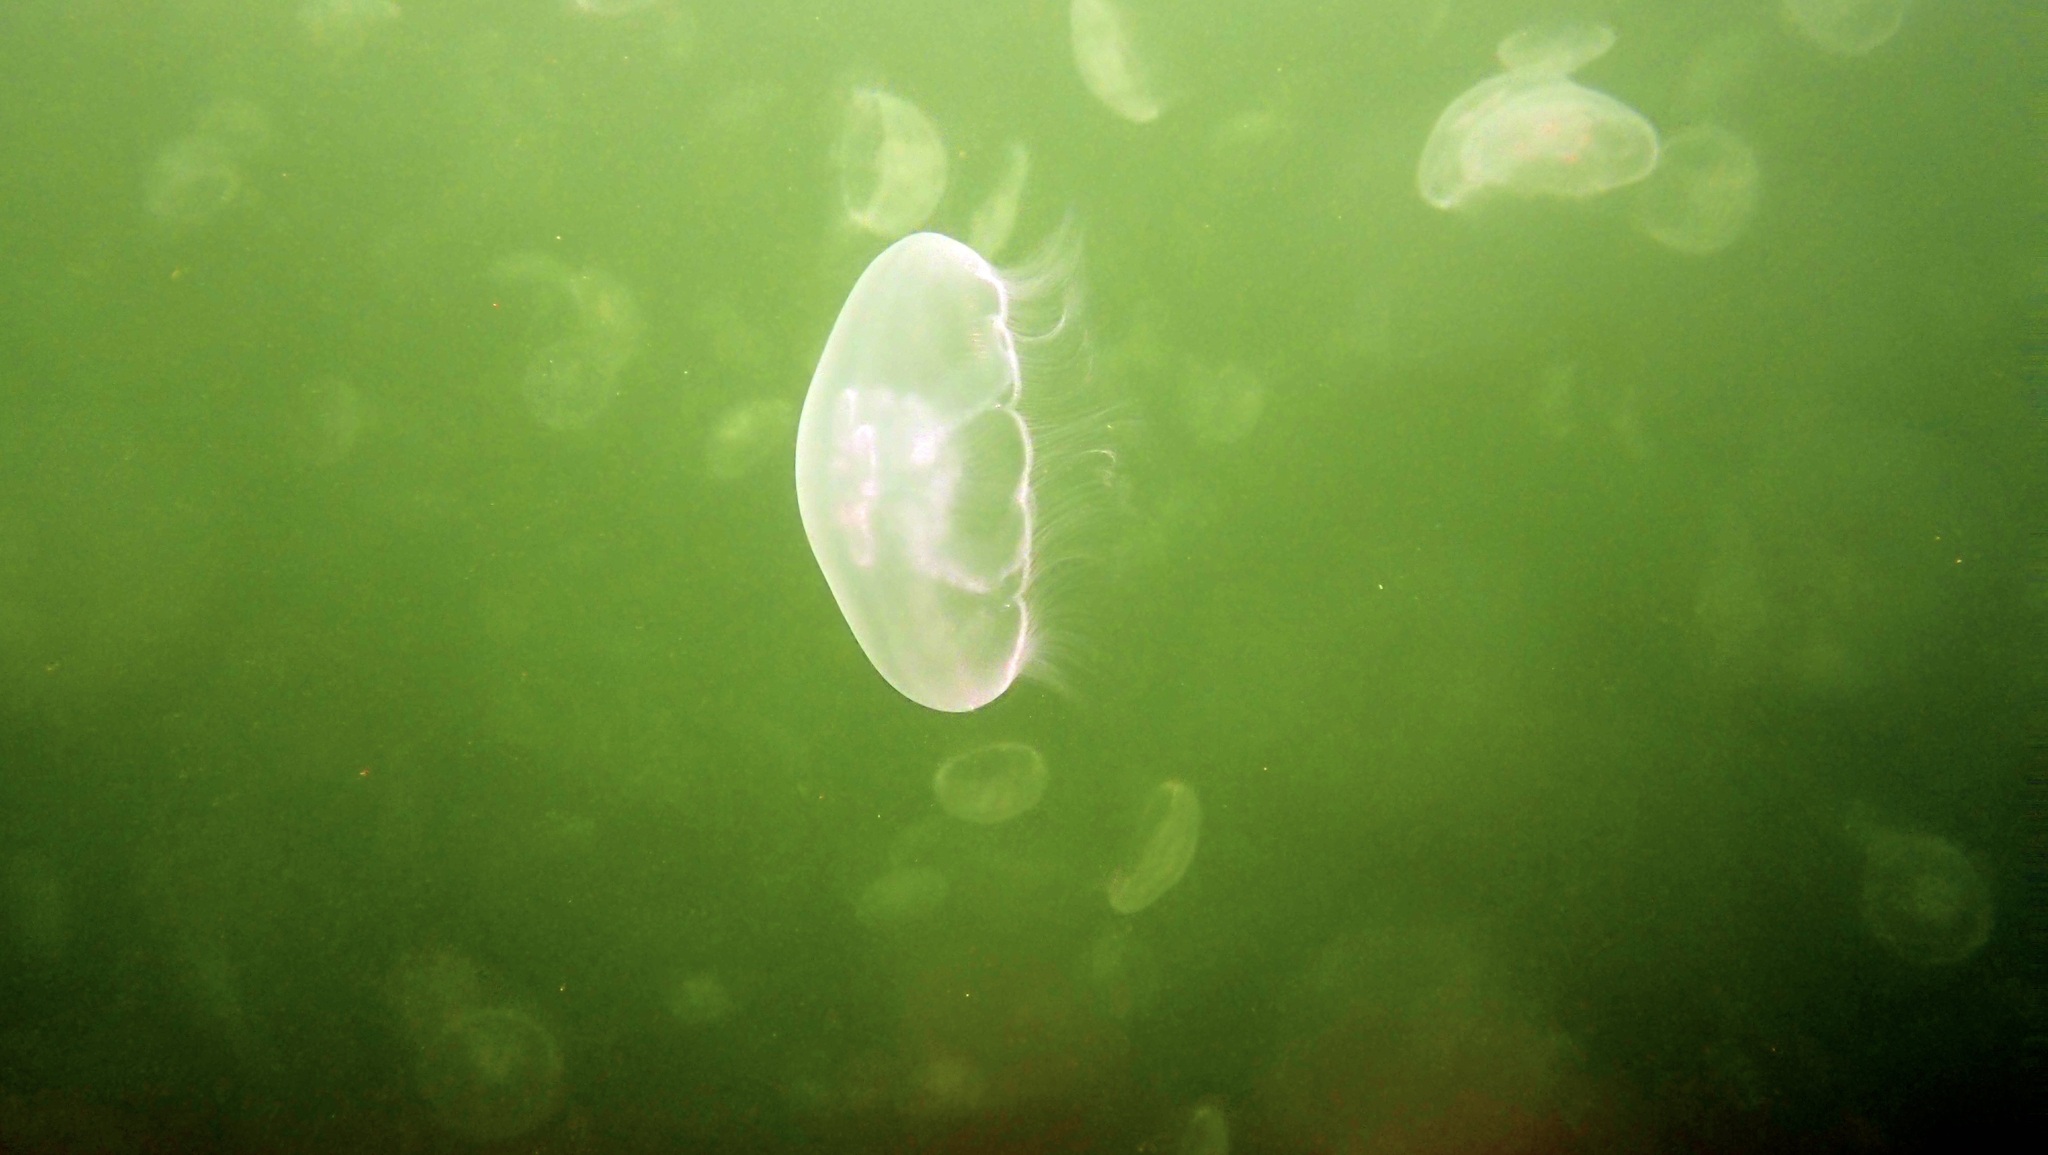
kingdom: Animalia
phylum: Cnidaria
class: Scyphozoa
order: Semaeostomeae
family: Ulmaridae
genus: Aurelia
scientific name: Aurelia aurita
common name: Moon jellyfish
